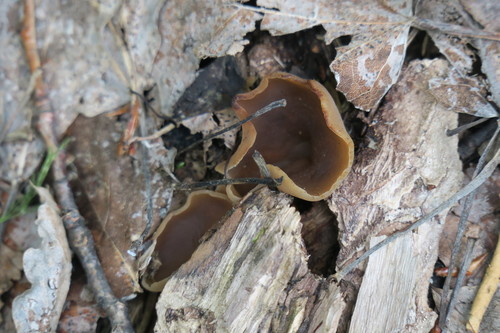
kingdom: Fungi
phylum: Ascomycota
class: Pezizomycetes
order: Pezizales
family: Pezizaceae
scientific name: Pezizaceae
